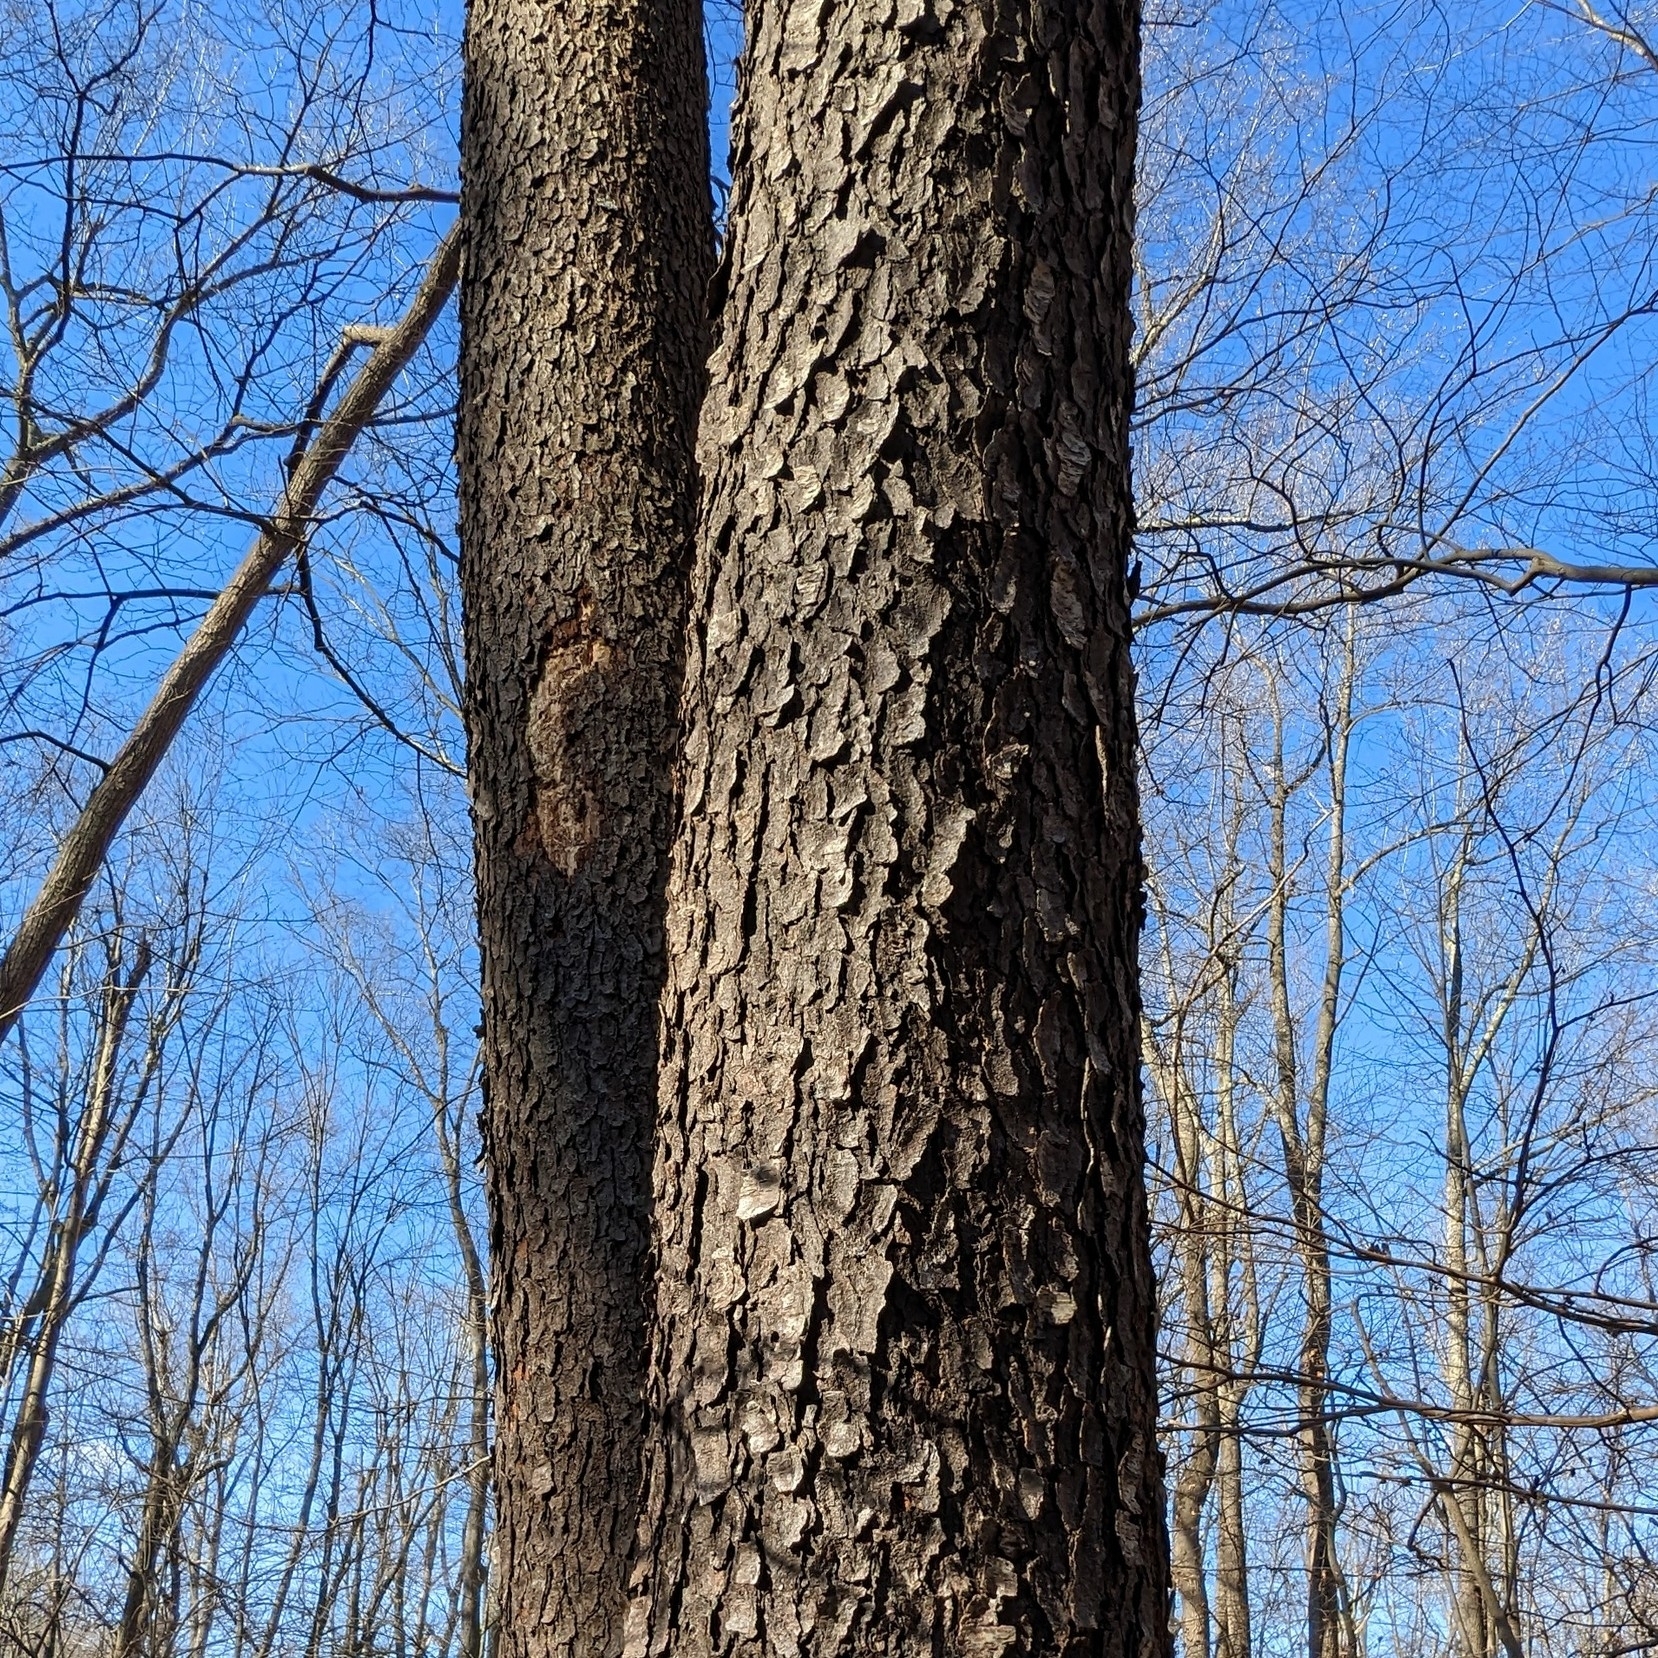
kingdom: Plantae
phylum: Tracheophyta
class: Magnoliopsida
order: Rosales
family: Rosaceae
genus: Prunus
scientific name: Prunus serotina
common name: Black cherry
